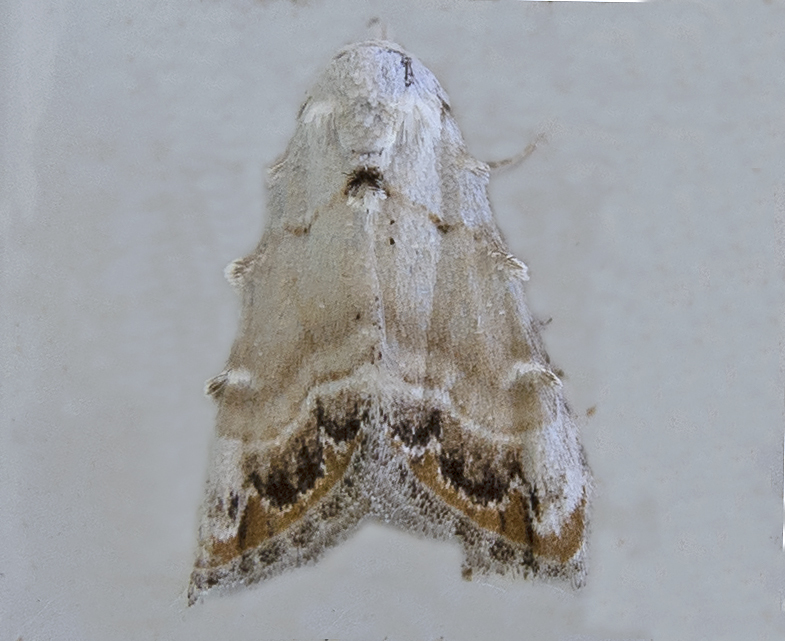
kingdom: Animalia
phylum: Arthropoda
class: Insecta
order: Lepidoptera
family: Nolidae
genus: Nola
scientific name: Nola chlamitulalis
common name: Jersey black arches
